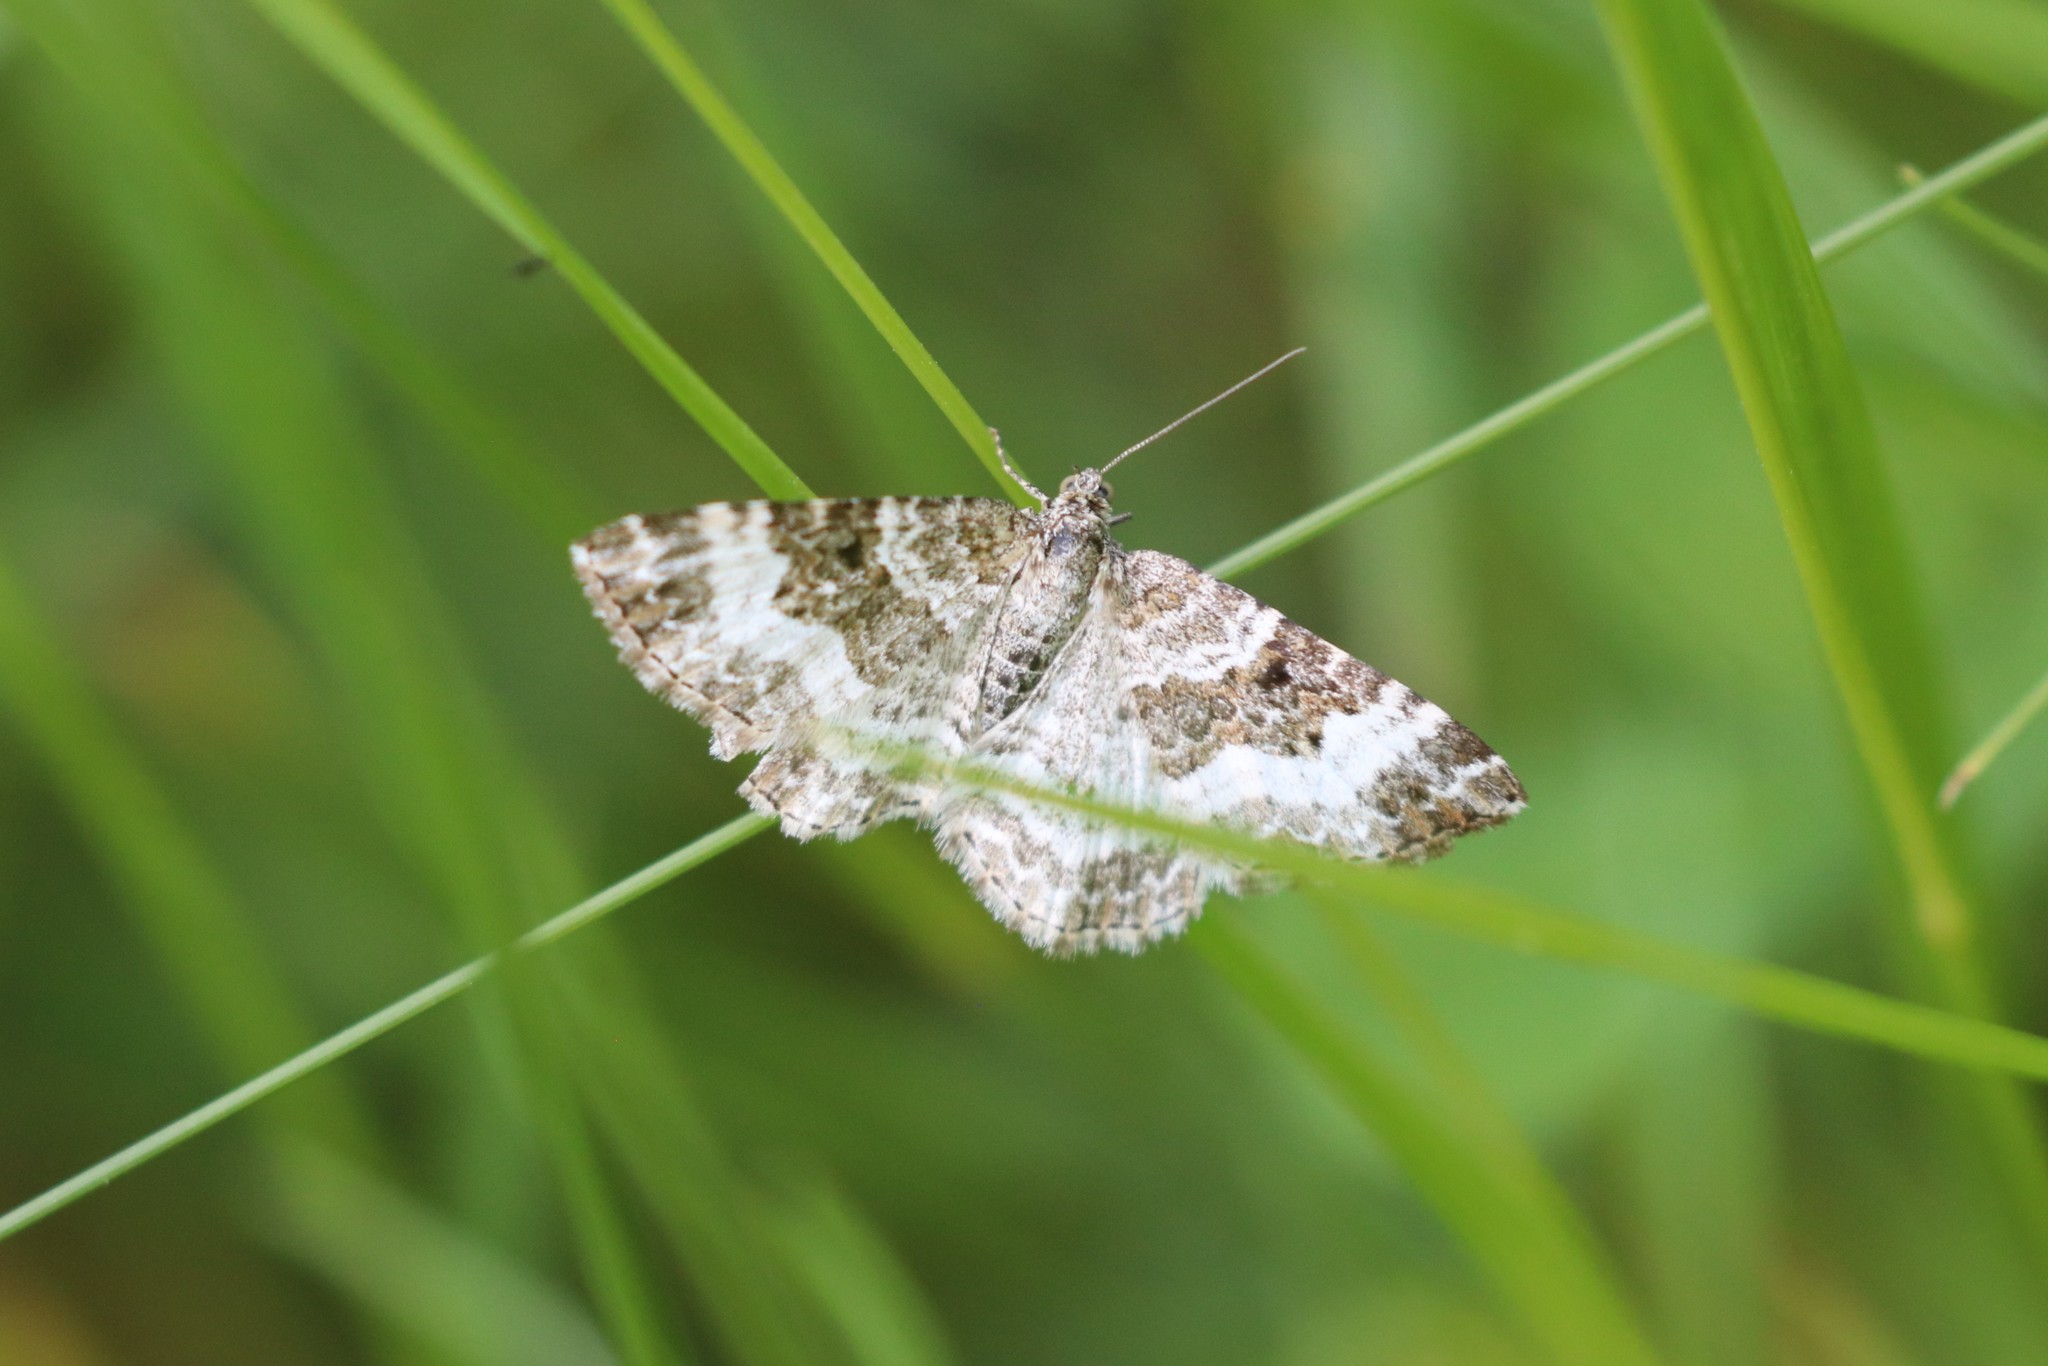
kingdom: Animalia
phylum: Arthropoda
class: Insecta
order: Lepidoptera
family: Geometridae
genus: Epirrhoe
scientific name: Epirrhoe alternata
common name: Common carpet
